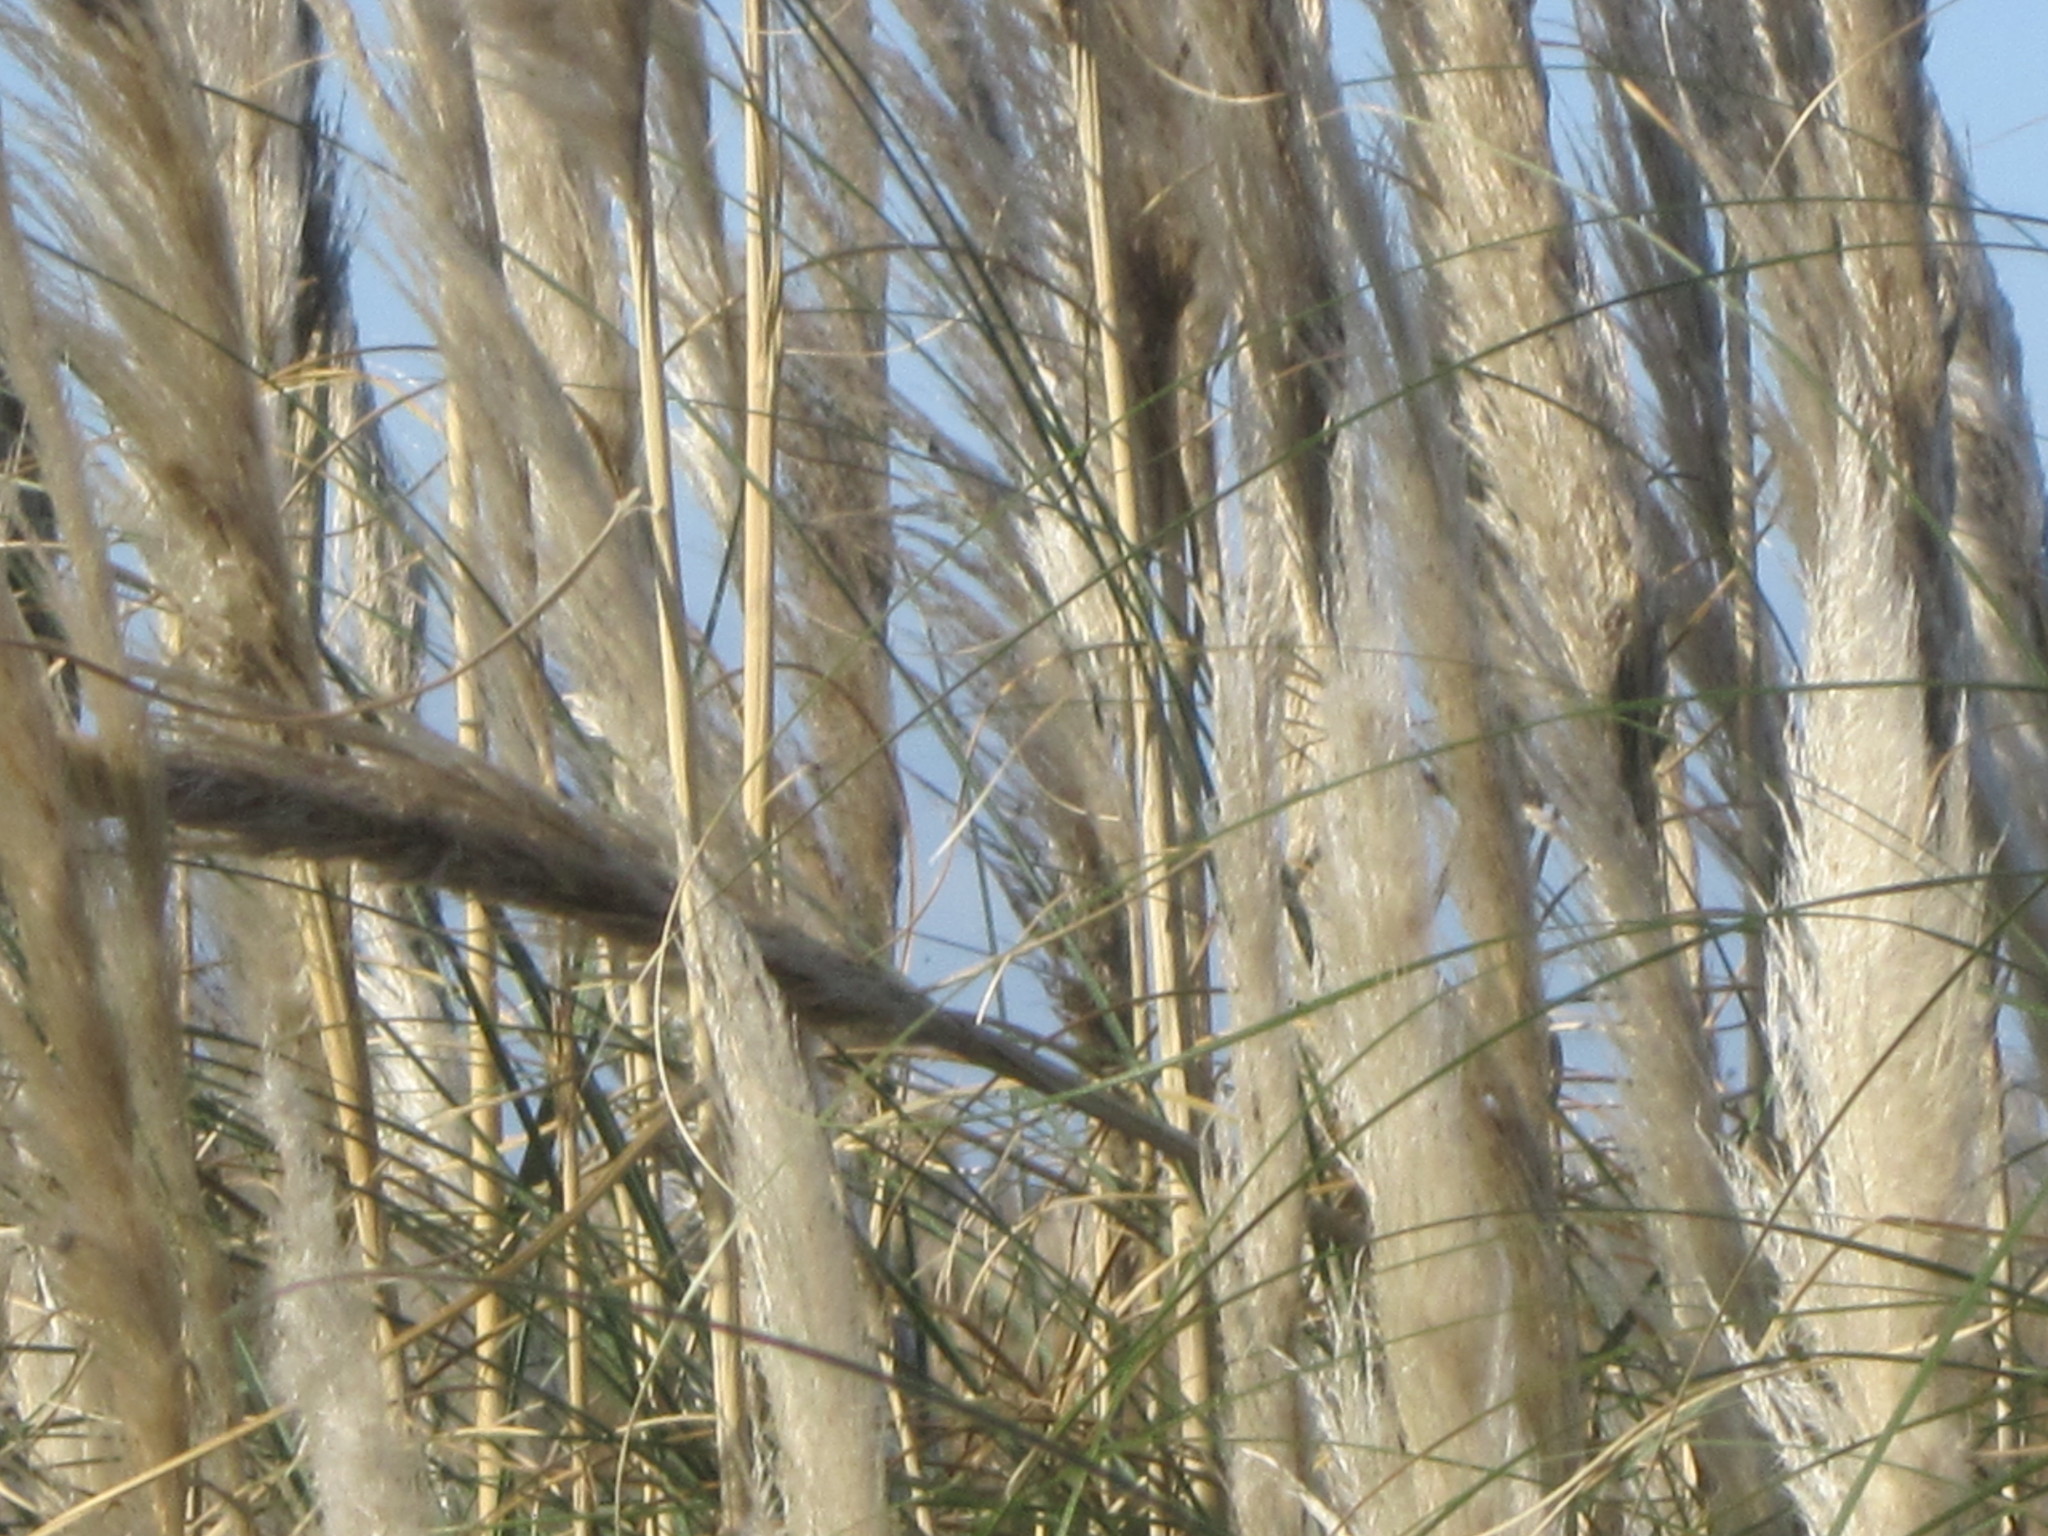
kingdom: Plantae
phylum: Tracheophyta
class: Liliopsida
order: Poales
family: Poaceae
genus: Cortaderia
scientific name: Cortaderia selloana
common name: Uruguayan pampas grass
